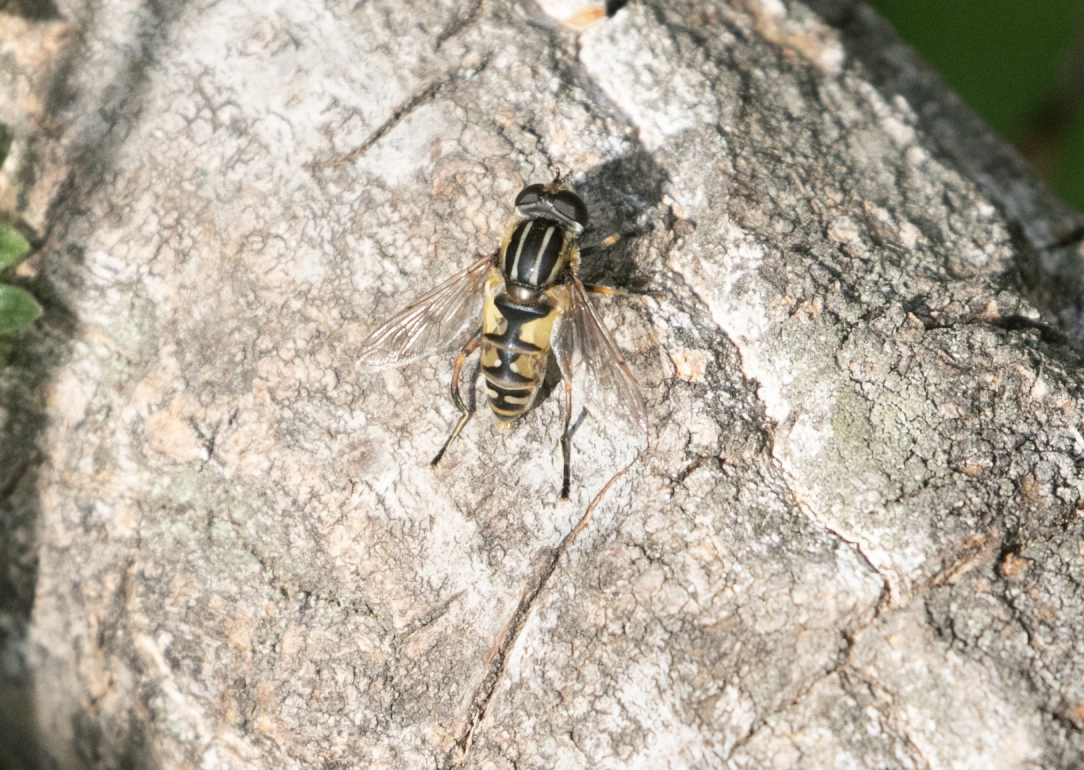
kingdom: Animalia
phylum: Arthropoda
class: Insecta
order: Diptera
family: Syrphidae
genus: Helophilus
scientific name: Helophilus pendulus
